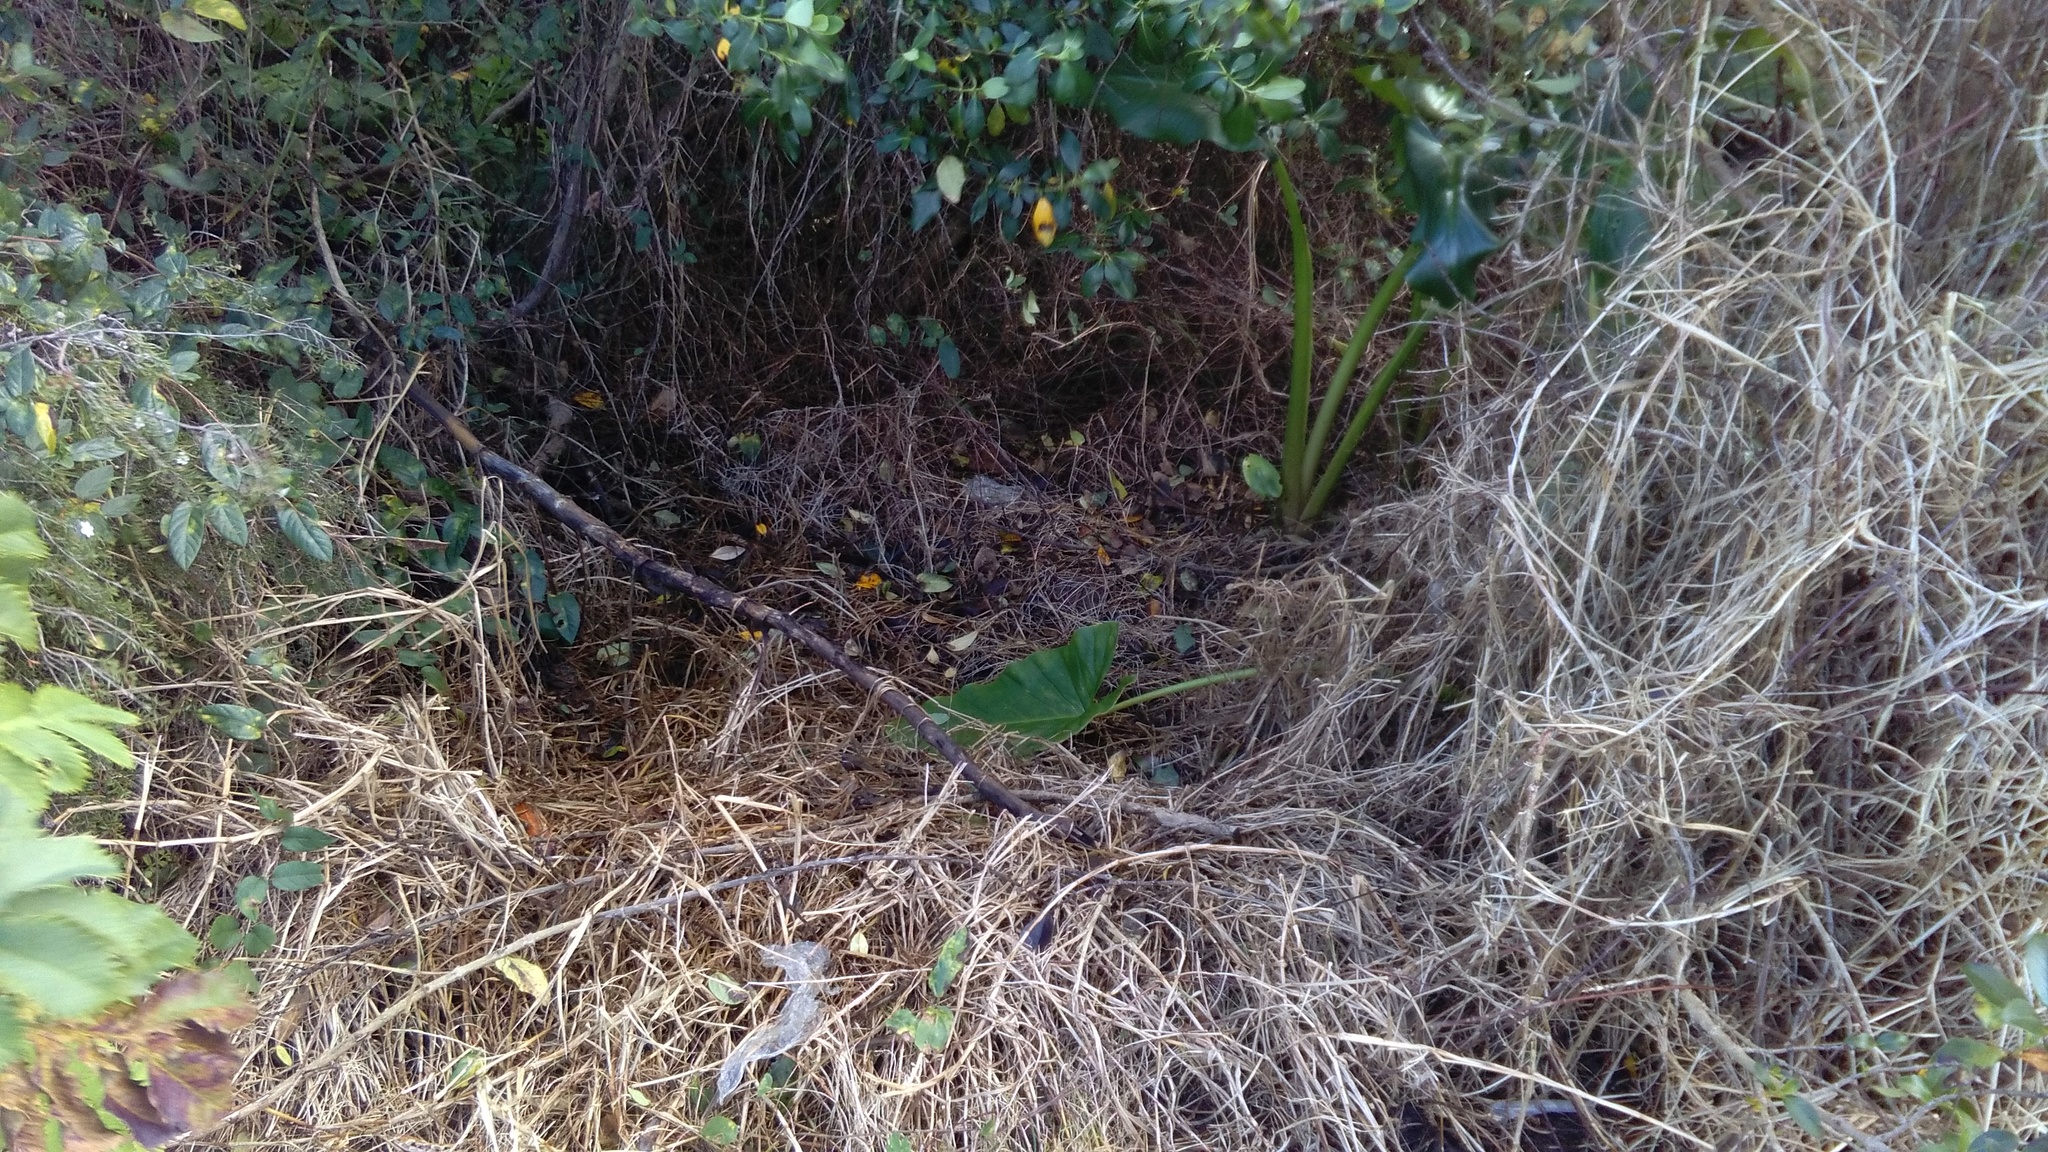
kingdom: Plantae
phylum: Tracheophyta
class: Liliopsida
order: Alismatales
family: Araceae
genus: Zantedeschia
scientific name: Zantedeschia aethiopica
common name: Altar-lily
